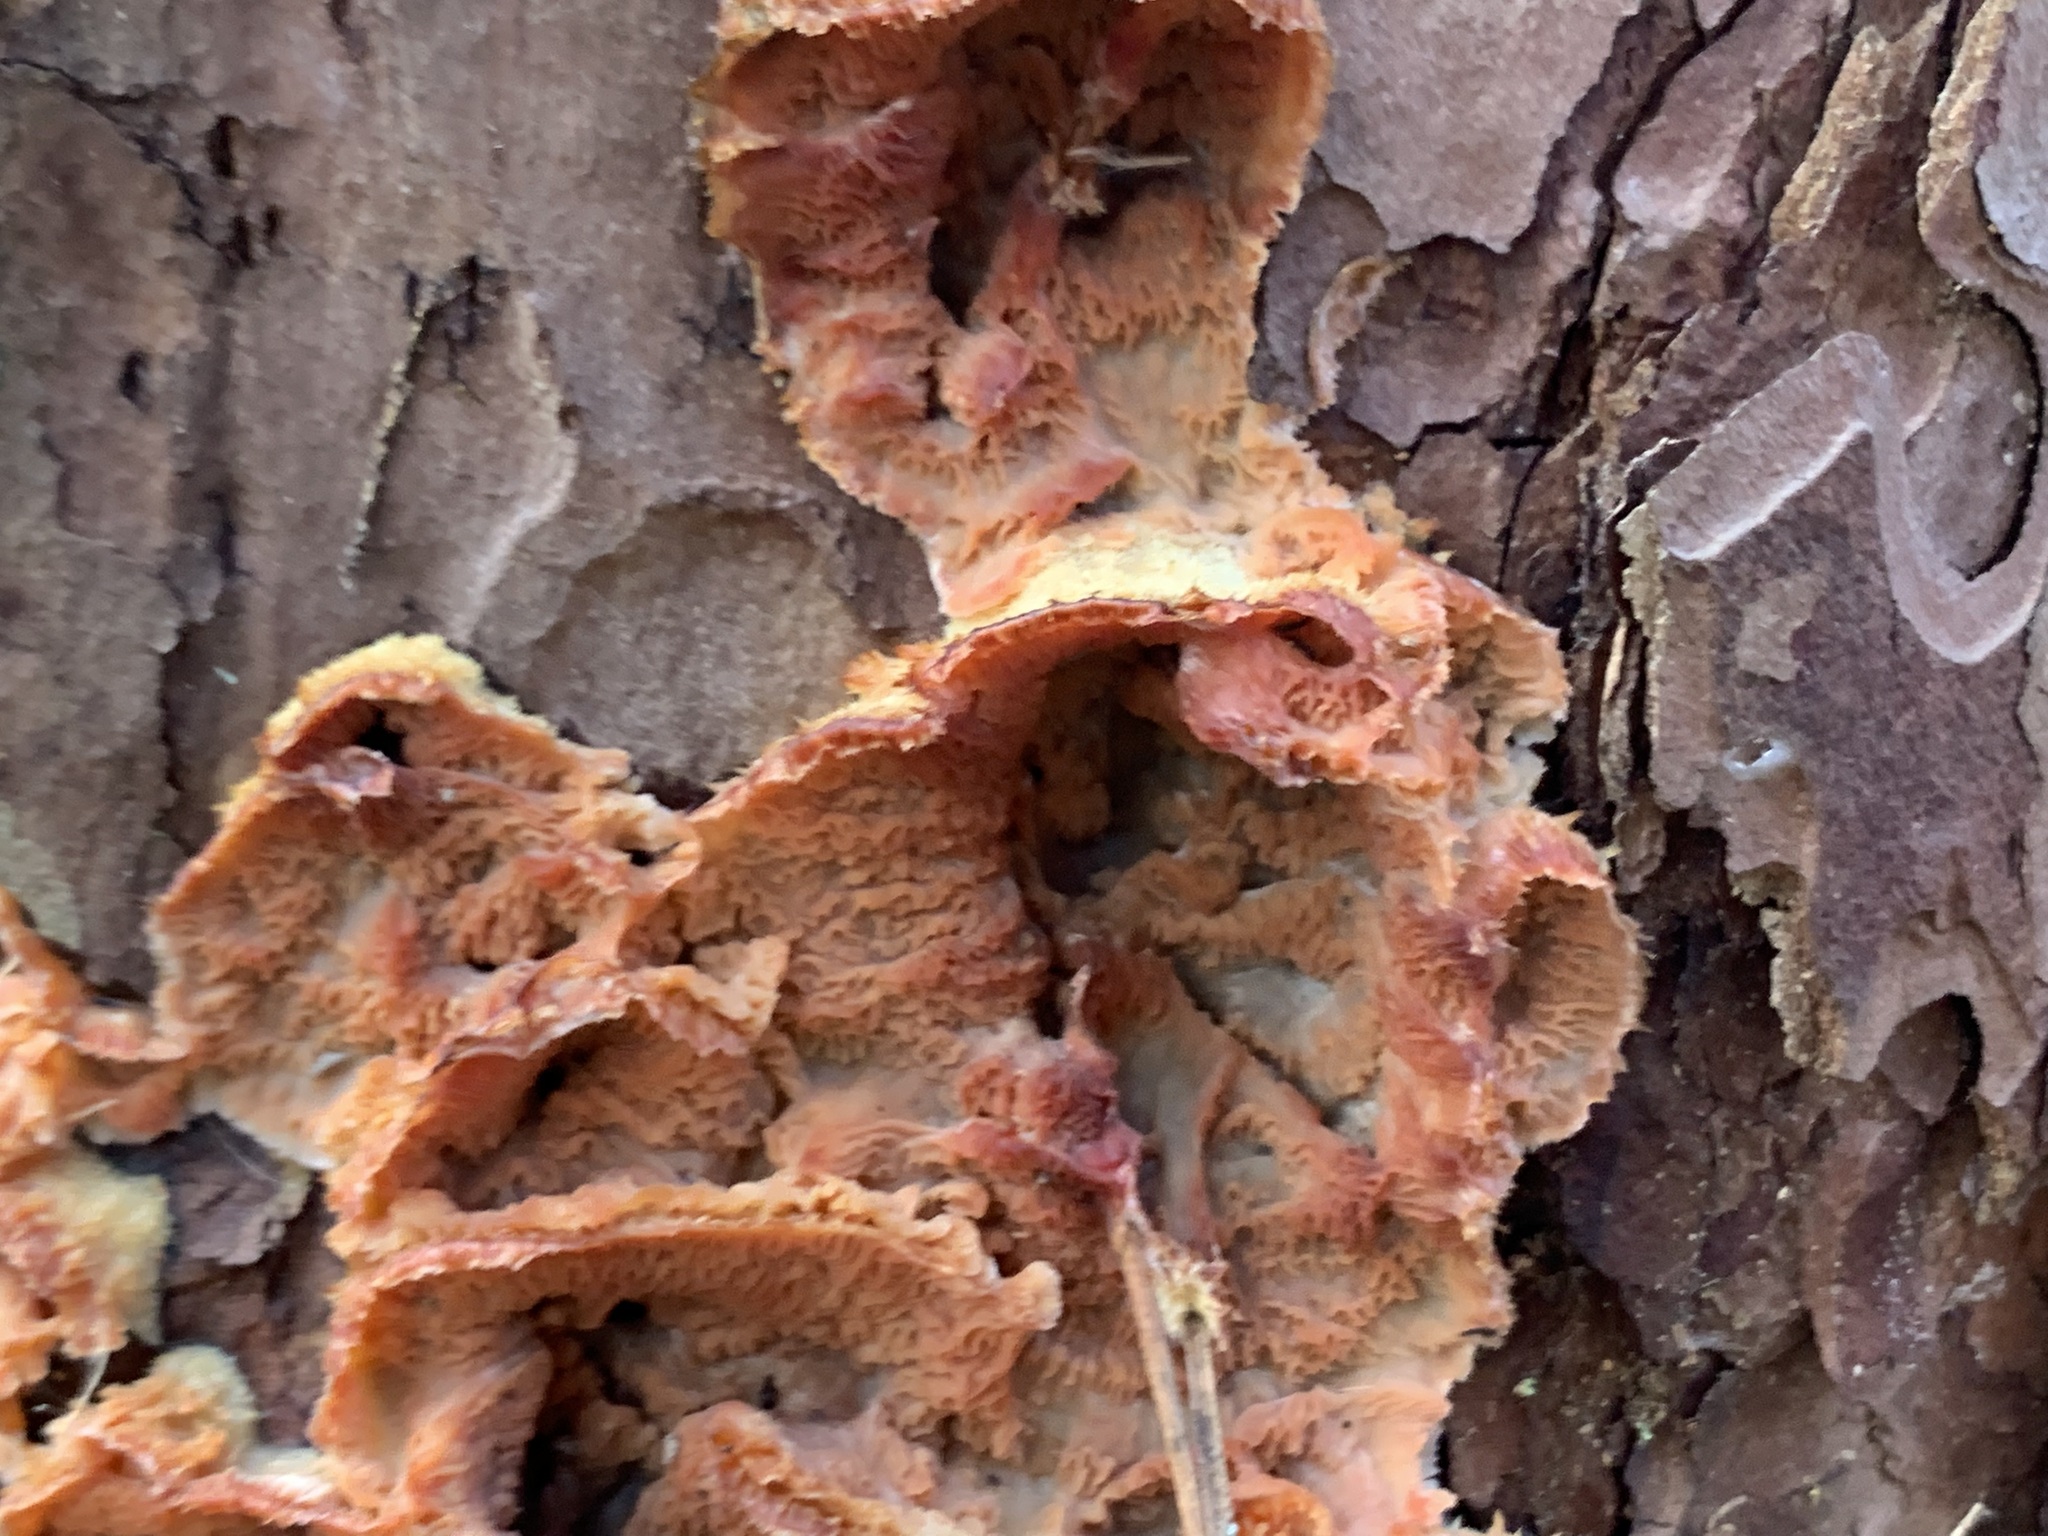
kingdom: Fungi
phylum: Basidiomycota
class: Agaricomycetes
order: Polyporales
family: Meruliaceae
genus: Phlebia
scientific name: Phlebia tremellosa
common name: Jelly rot
